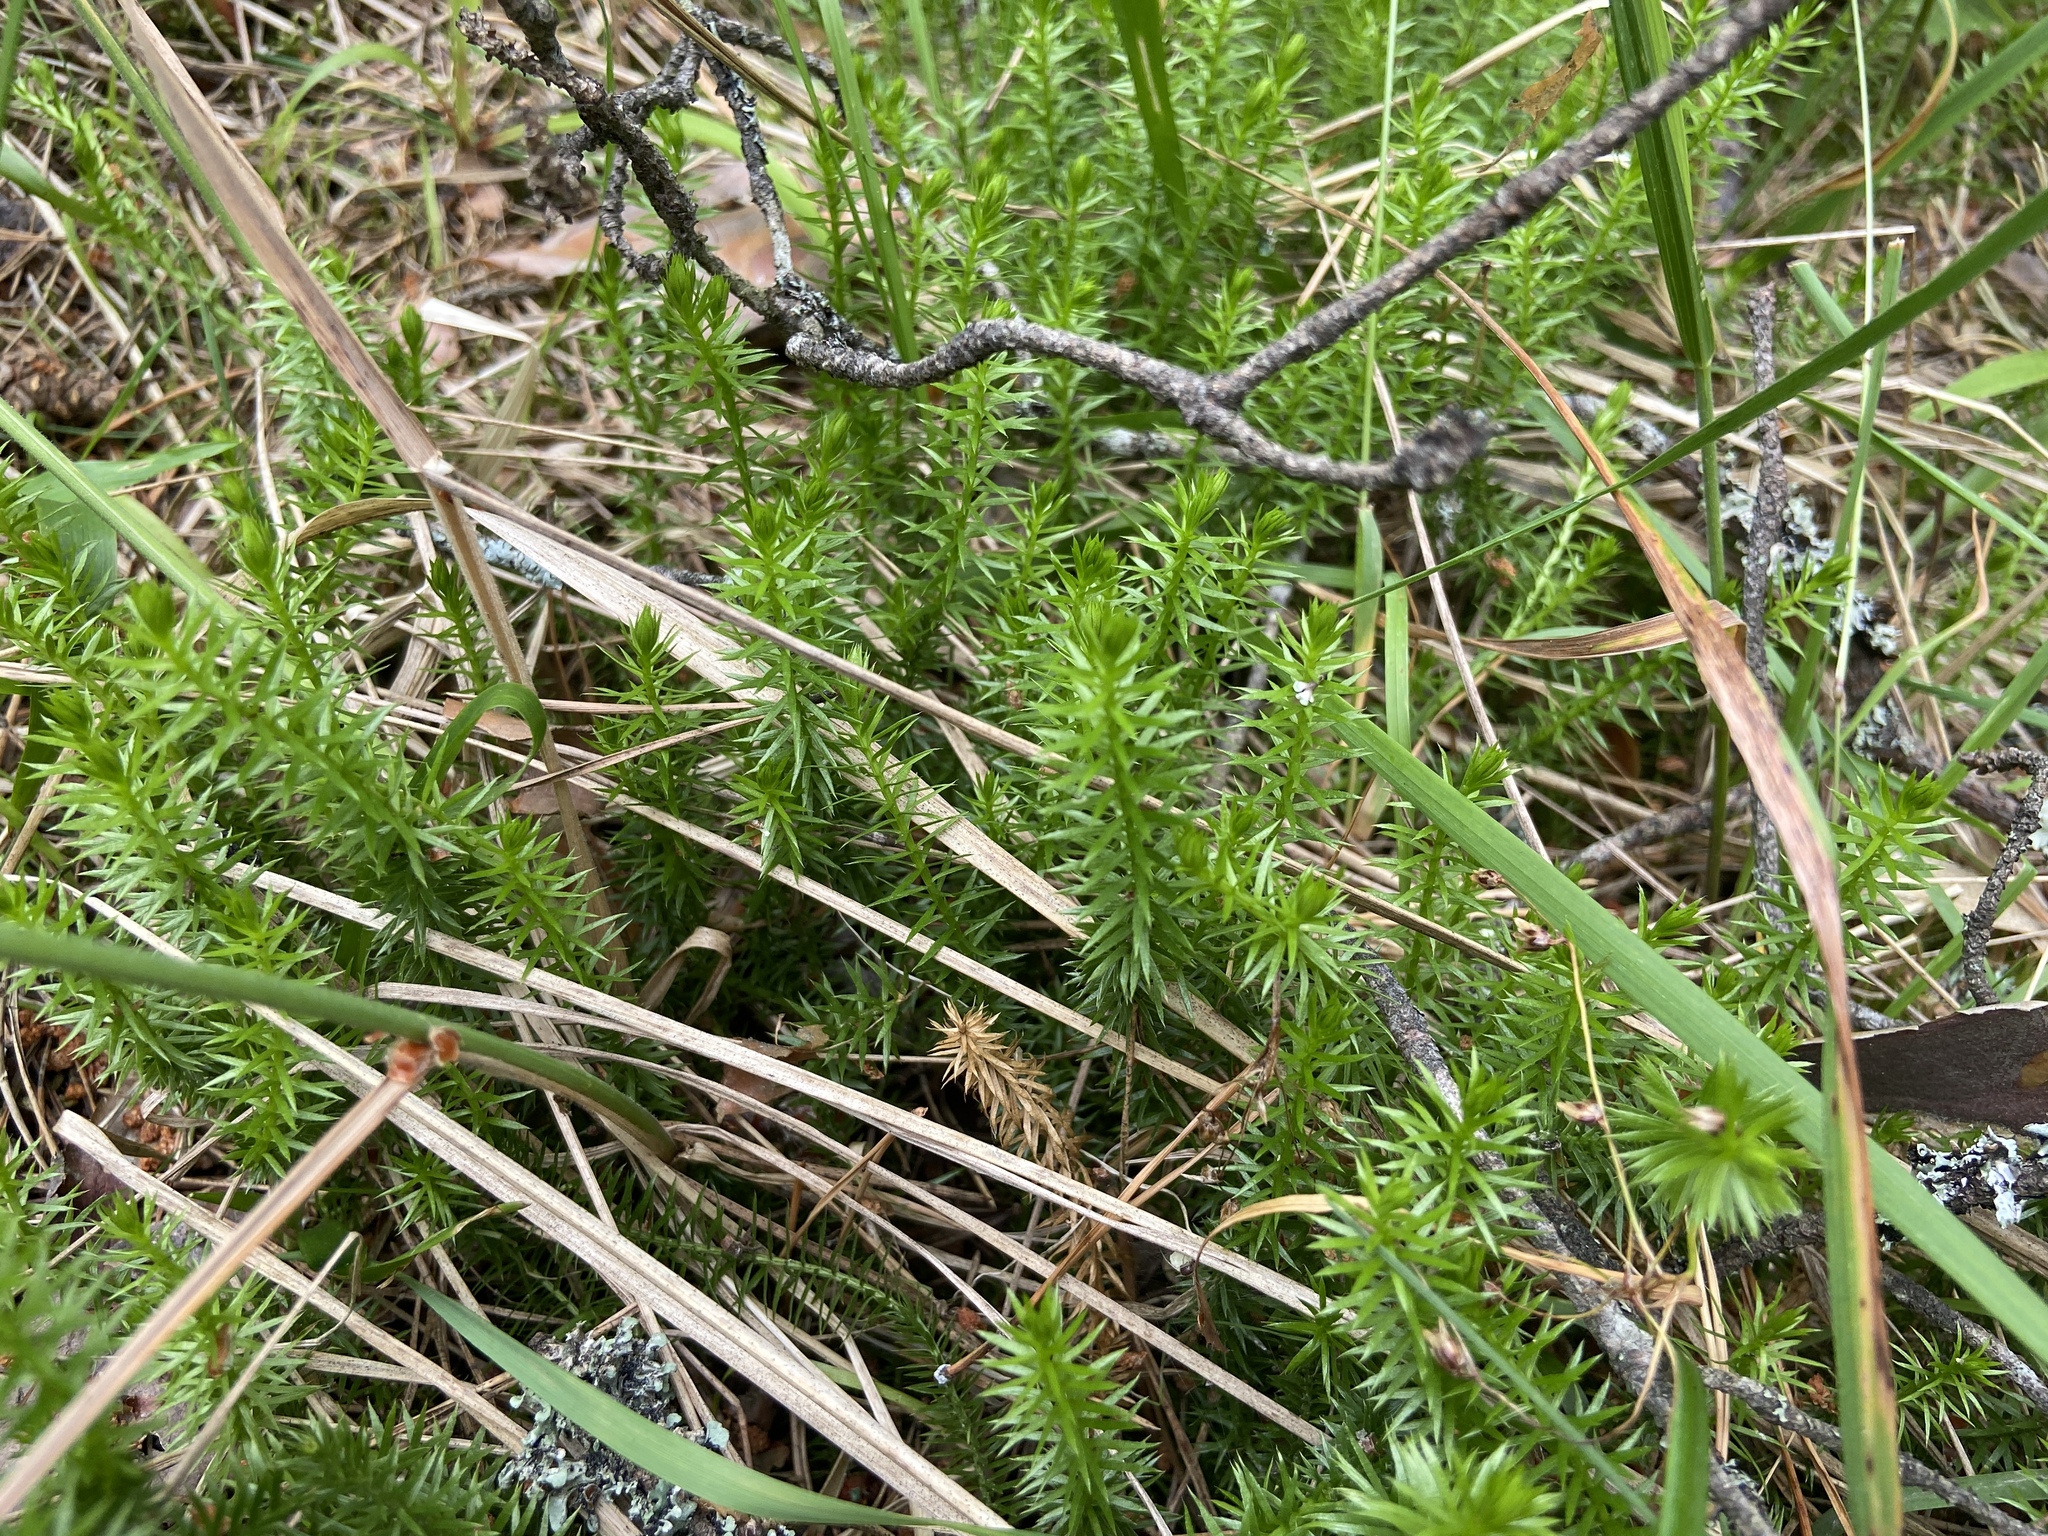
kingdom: Plantae
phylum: Tracheophyta
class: Lycopodiopsida
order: Lycopodiales
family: Lycopodiaceae
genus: Spinulum
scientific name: Spinulum annotinum
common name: Interrupted club-moss
